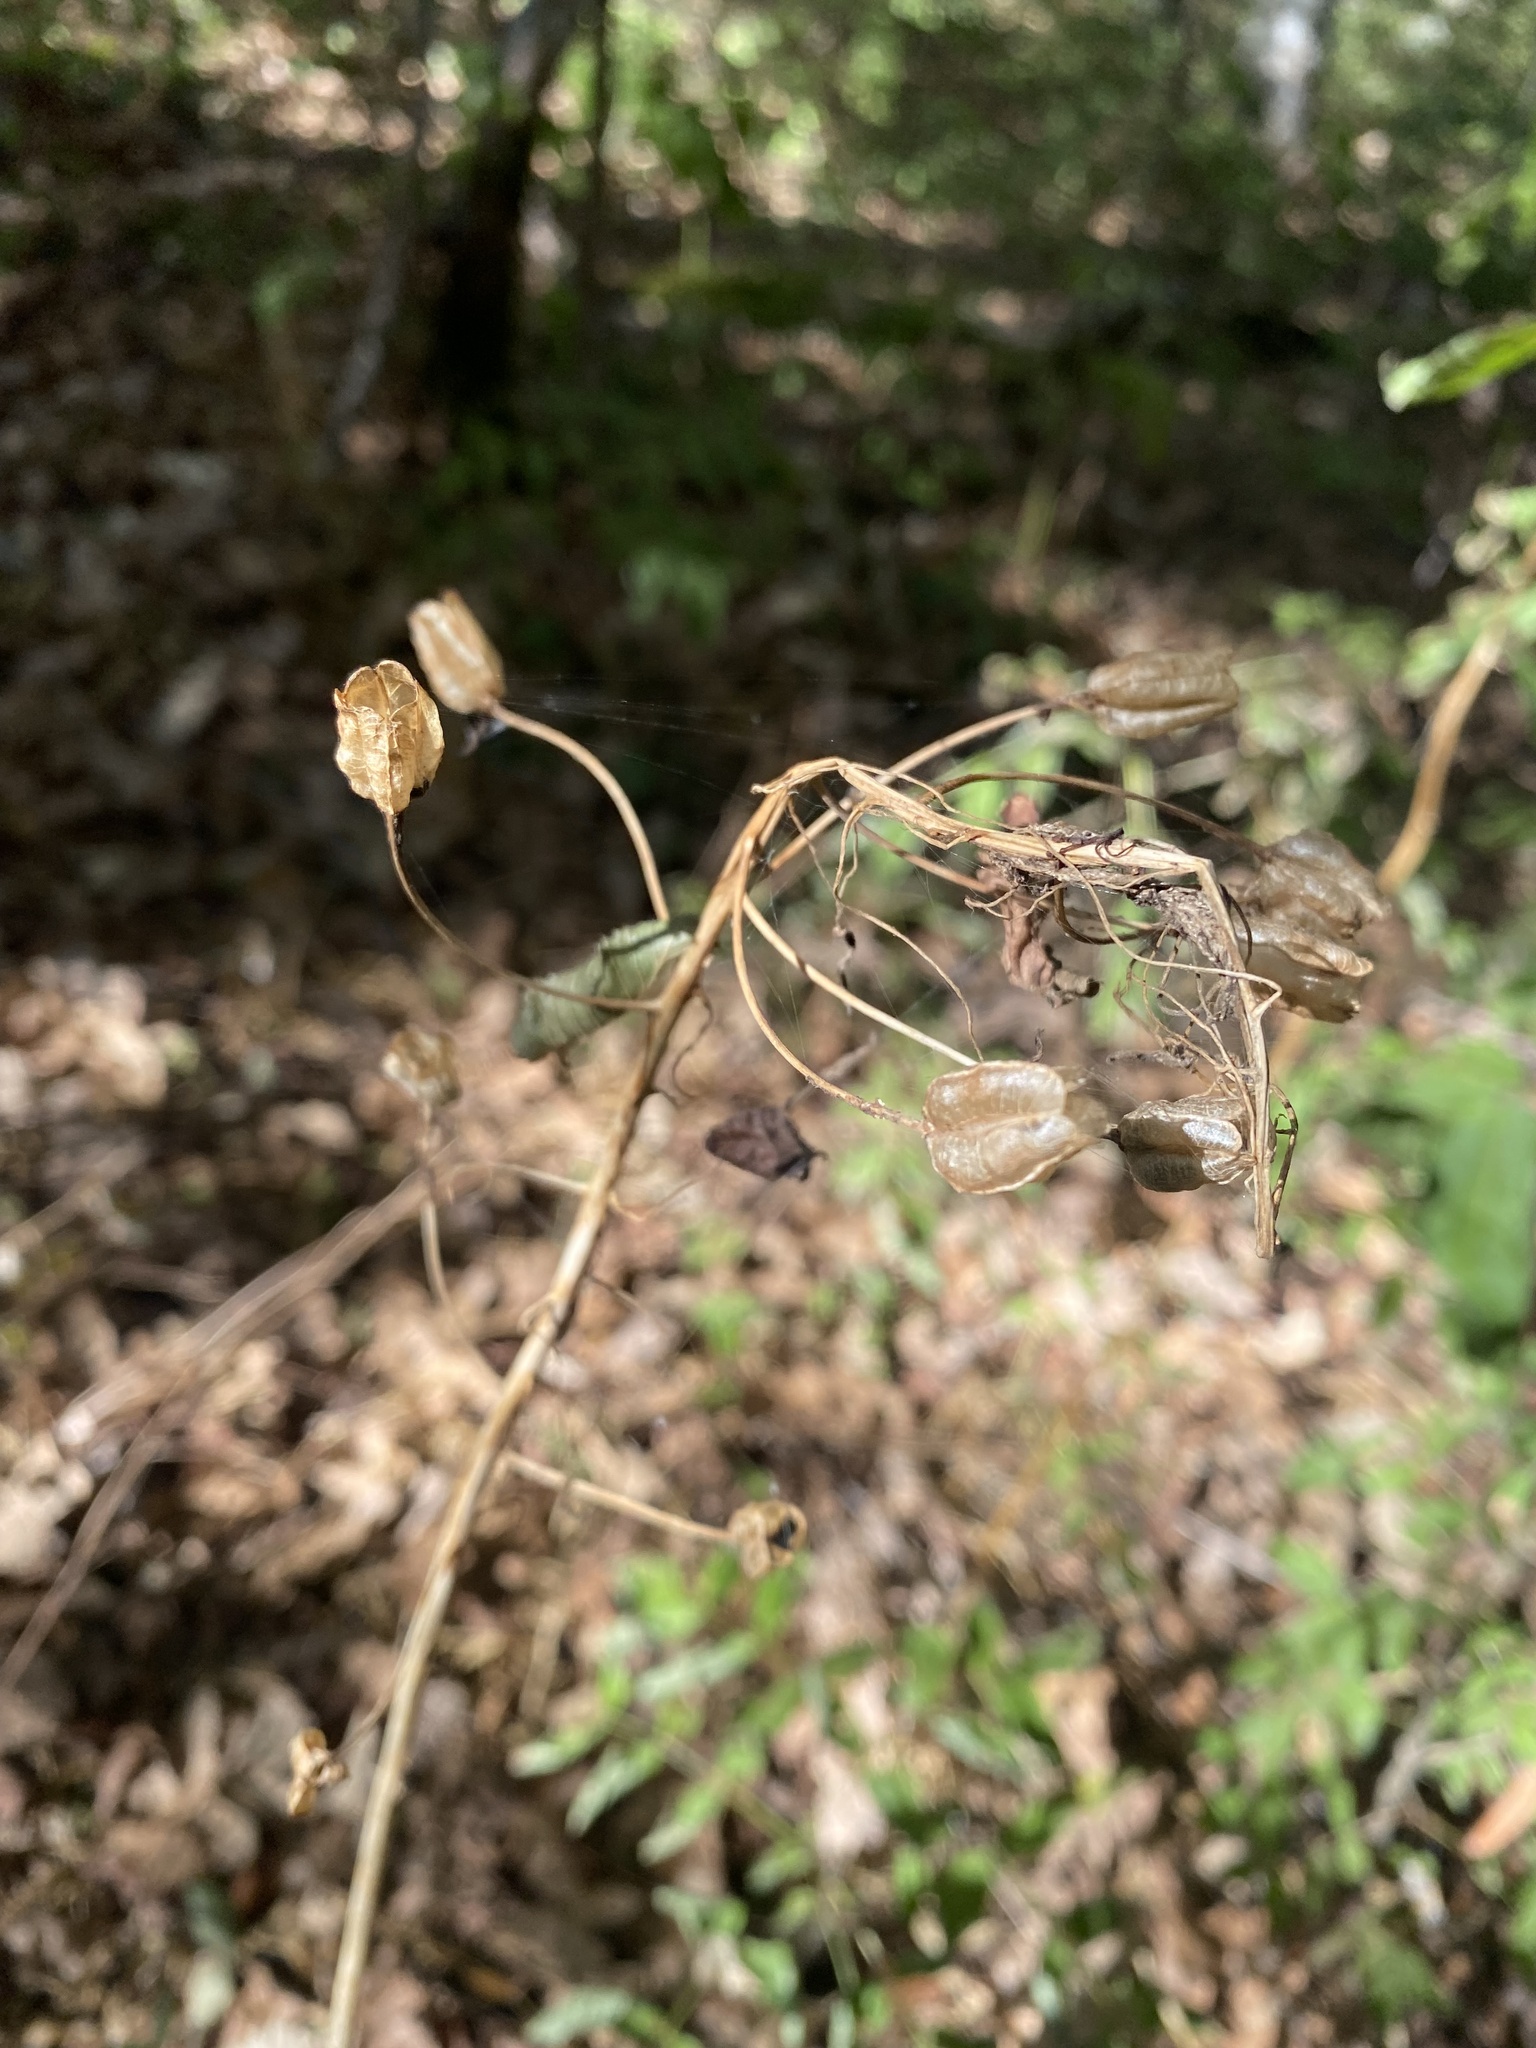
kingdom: Plantae
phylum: Tracheophyta
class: Liliopsida
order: Asparagales
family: Asparagaceae
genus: Ornithogalum
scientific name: Ornithogalum arcuatum
